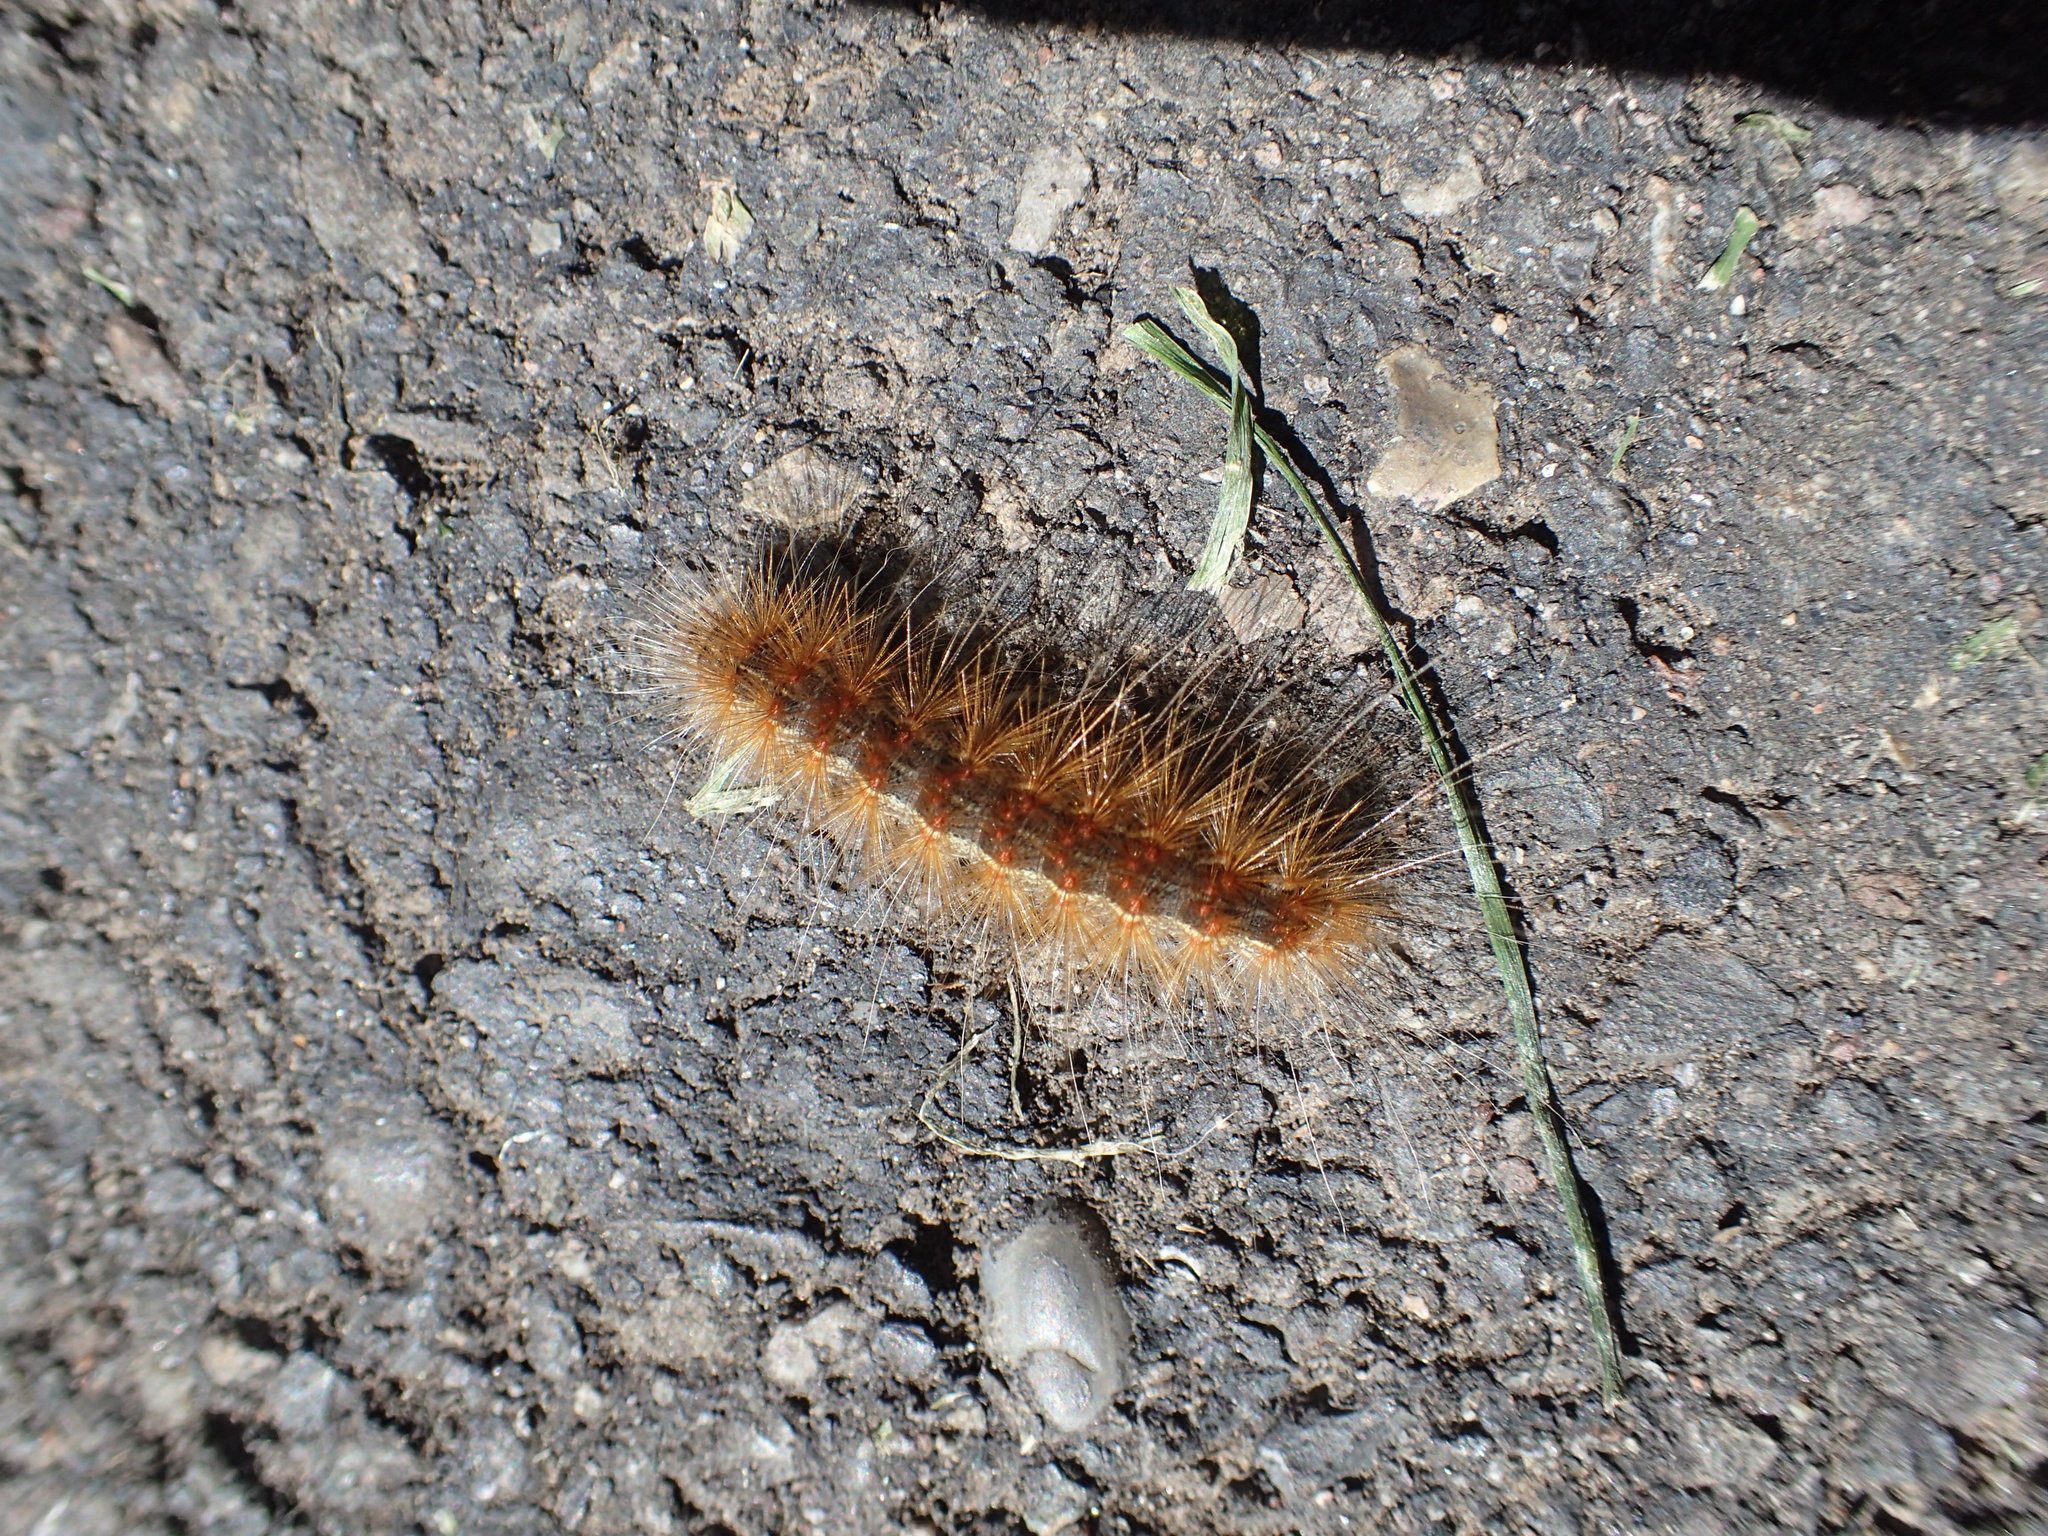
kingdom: Animalia
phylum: Arthropoda
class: Insecta
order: Lepidoptera
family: Erebidae
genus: Hyphantria
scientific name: Hyphantria cunea
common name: American white moth
